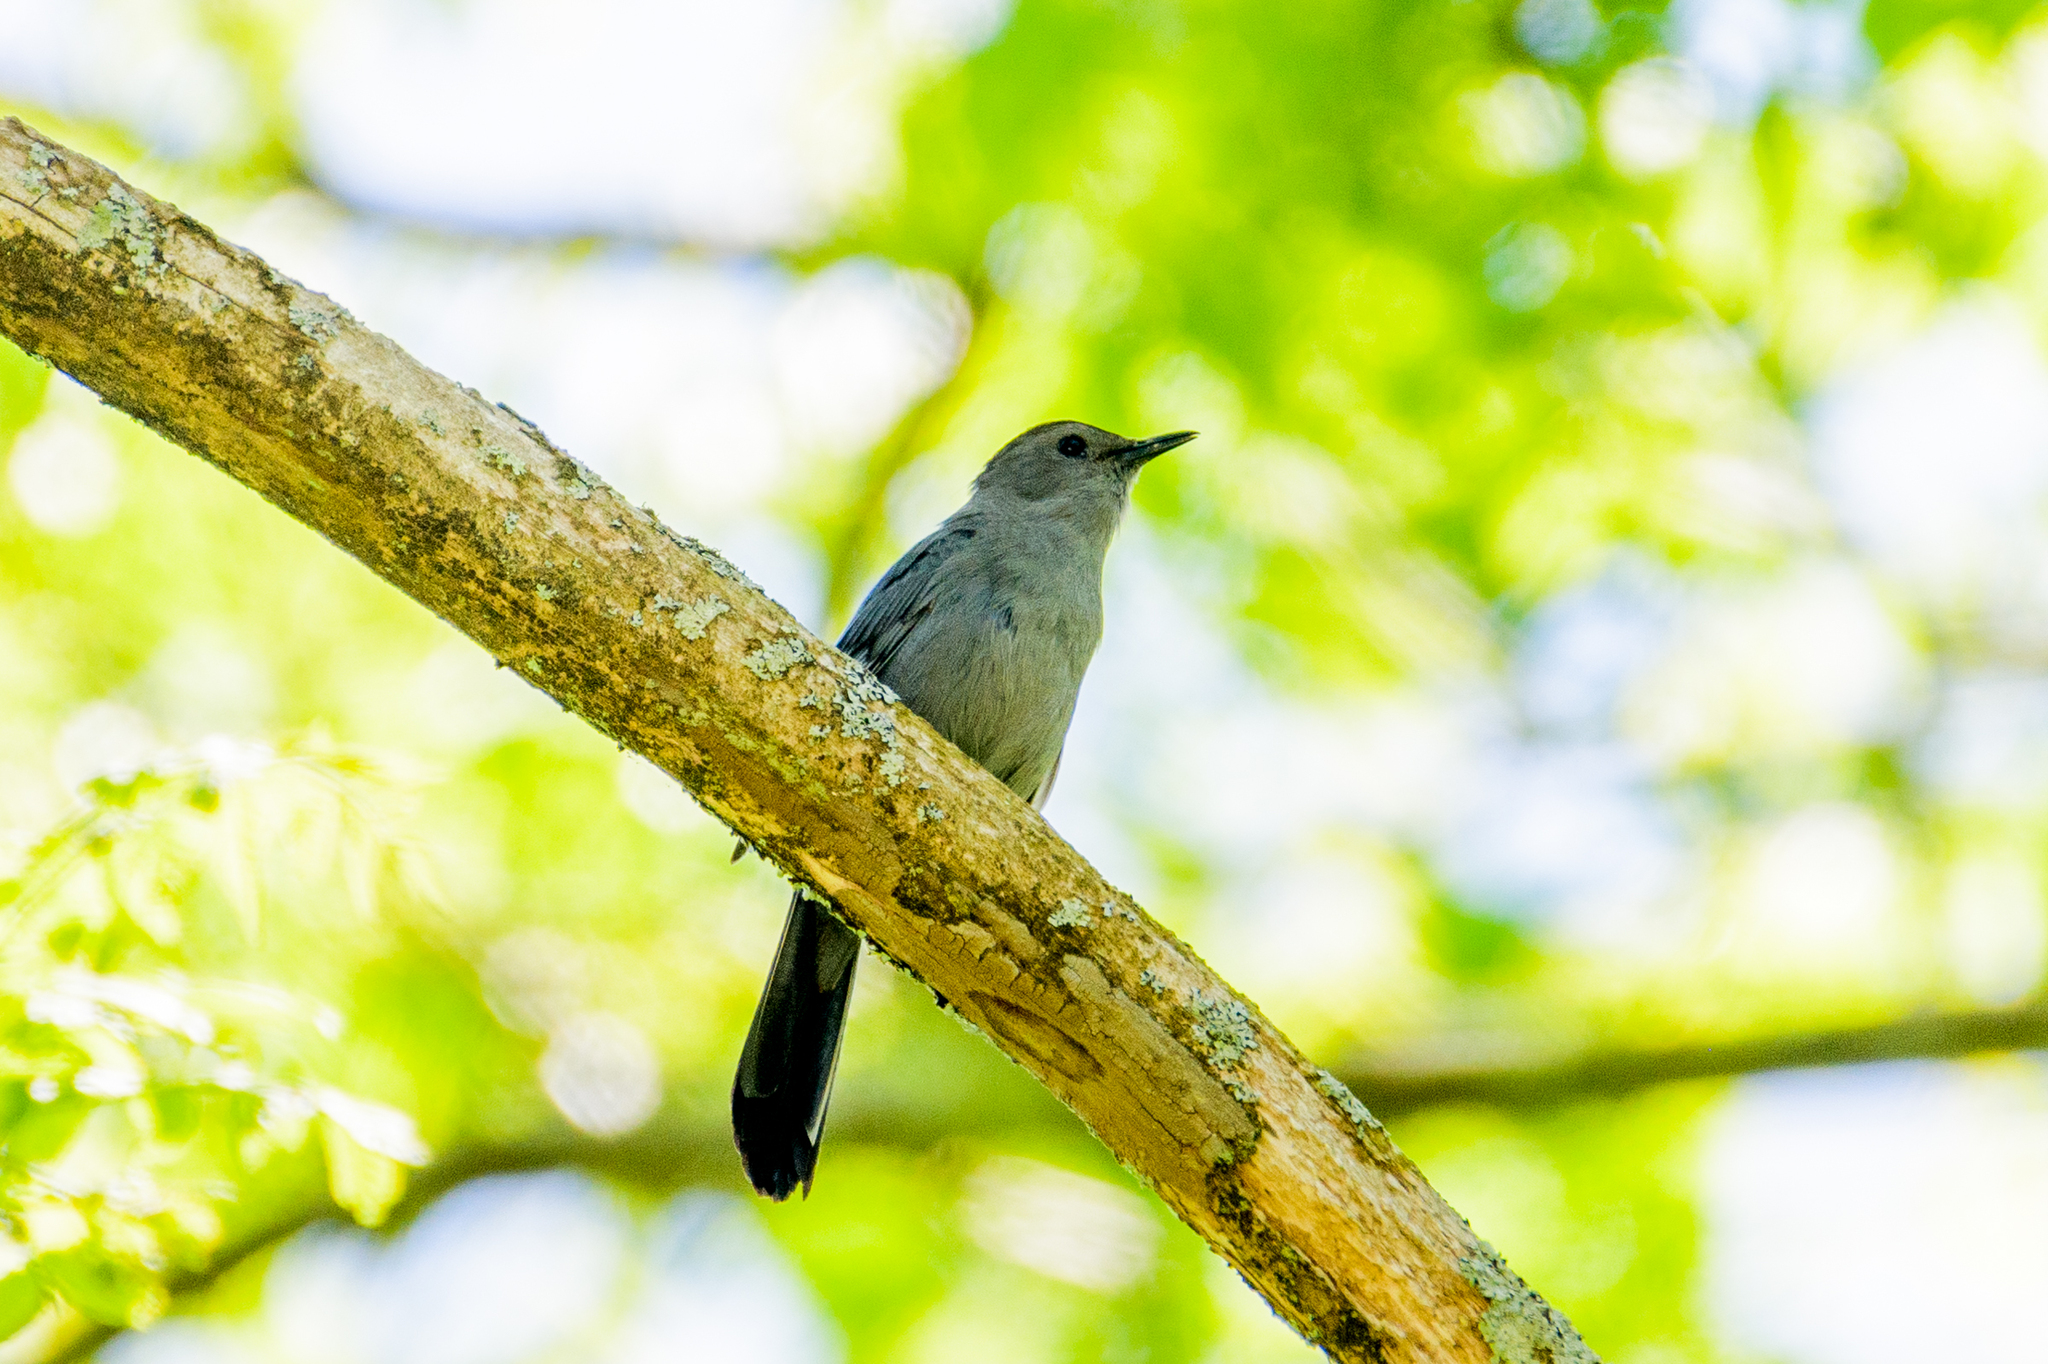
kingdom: Animalia
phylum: Chordata
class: Aves
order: Passeriformes
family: Mimidae
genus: Dumetella
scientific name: Dumetella carolinensis
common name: Gray catbird
